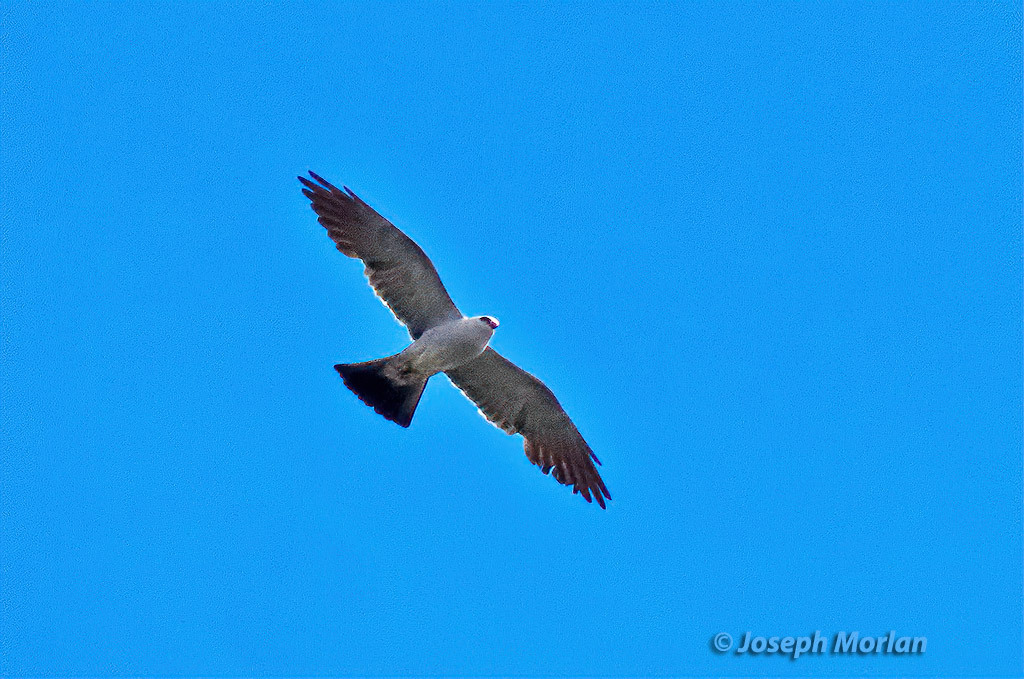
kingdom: Animalia
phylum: Chordata
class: Aves
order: Accipitriformes
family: Accipitridae
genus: Ictinia
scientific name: Ictinia mississippiensis
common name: Mississippi kite
